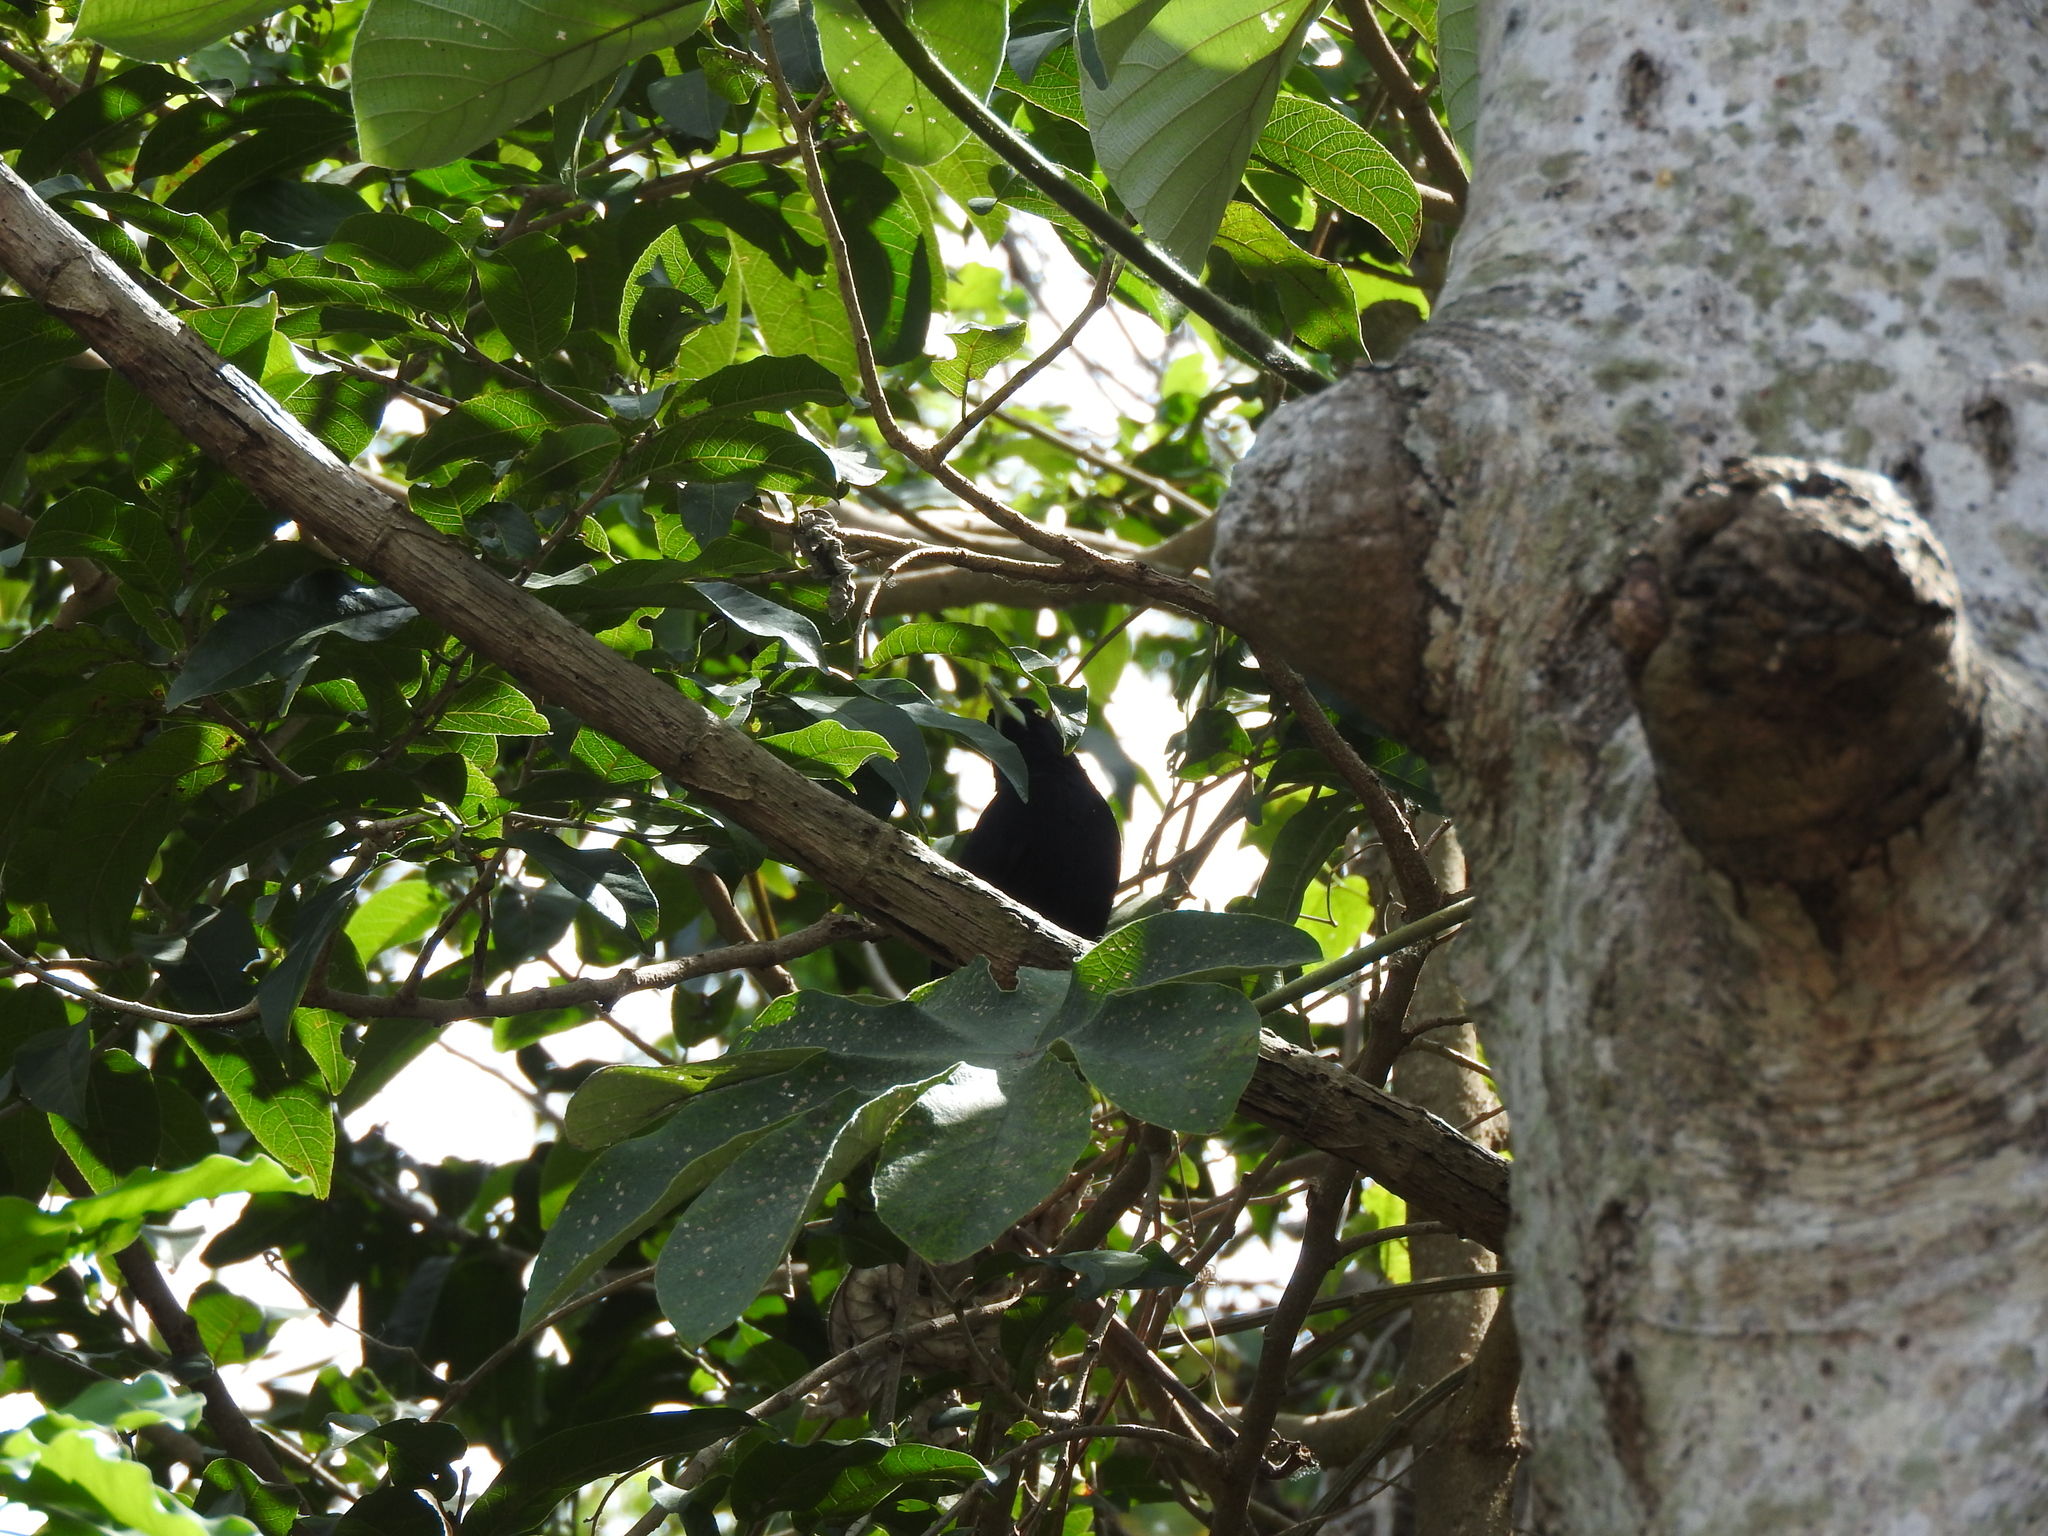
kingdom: Animalia
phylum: Chordata
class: Aves
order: Passeriformes
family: Icteridae
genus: Amblycercus
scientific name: Amblycercus holosericeus
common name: Yellow-billed cacique
